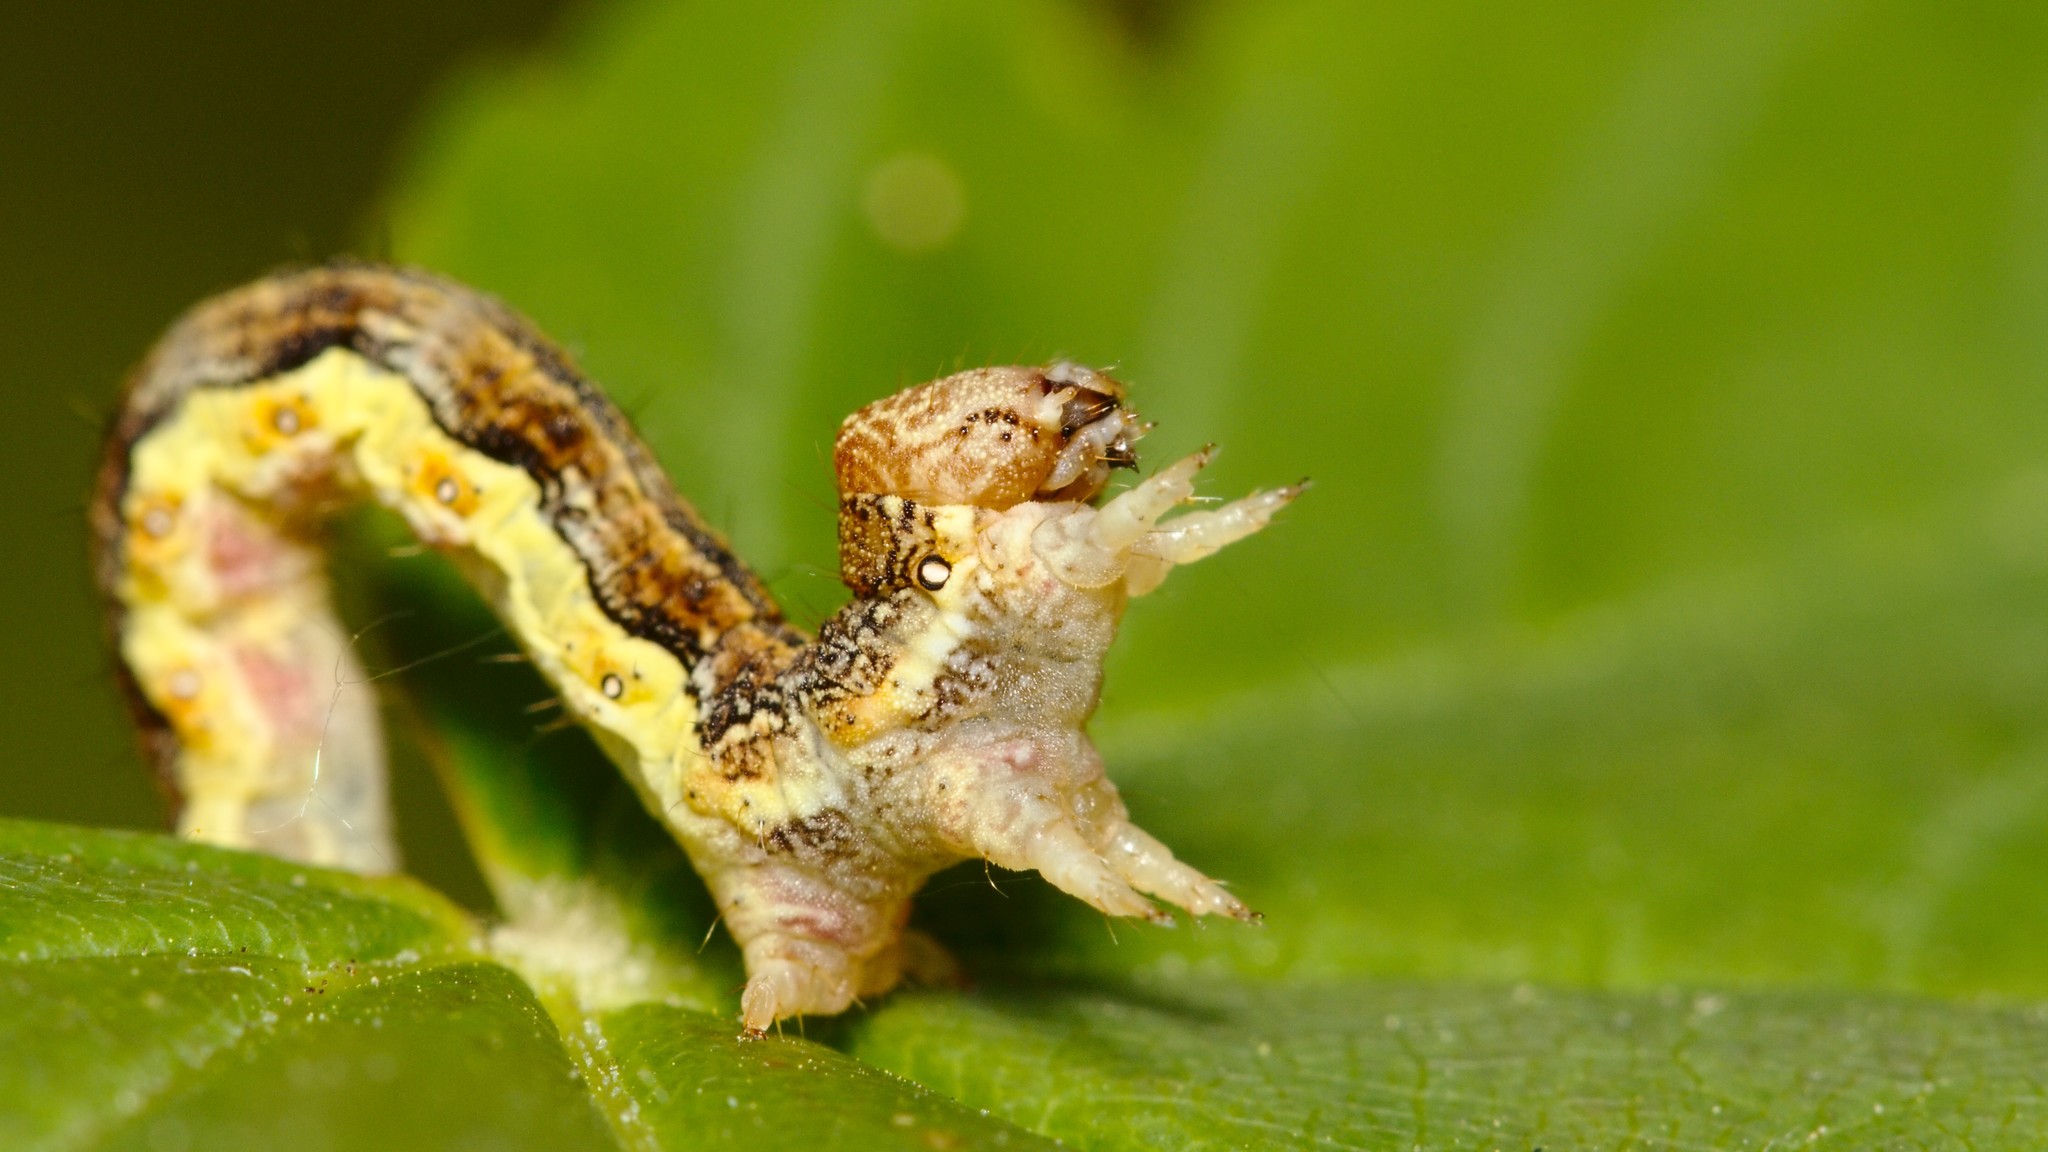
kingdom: Animalia
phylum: Arthropoda
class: Insecta
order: Lepidoptera
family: Geometridae
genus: Erannis
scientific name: Erannis defoliaria
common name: Mottled umber
